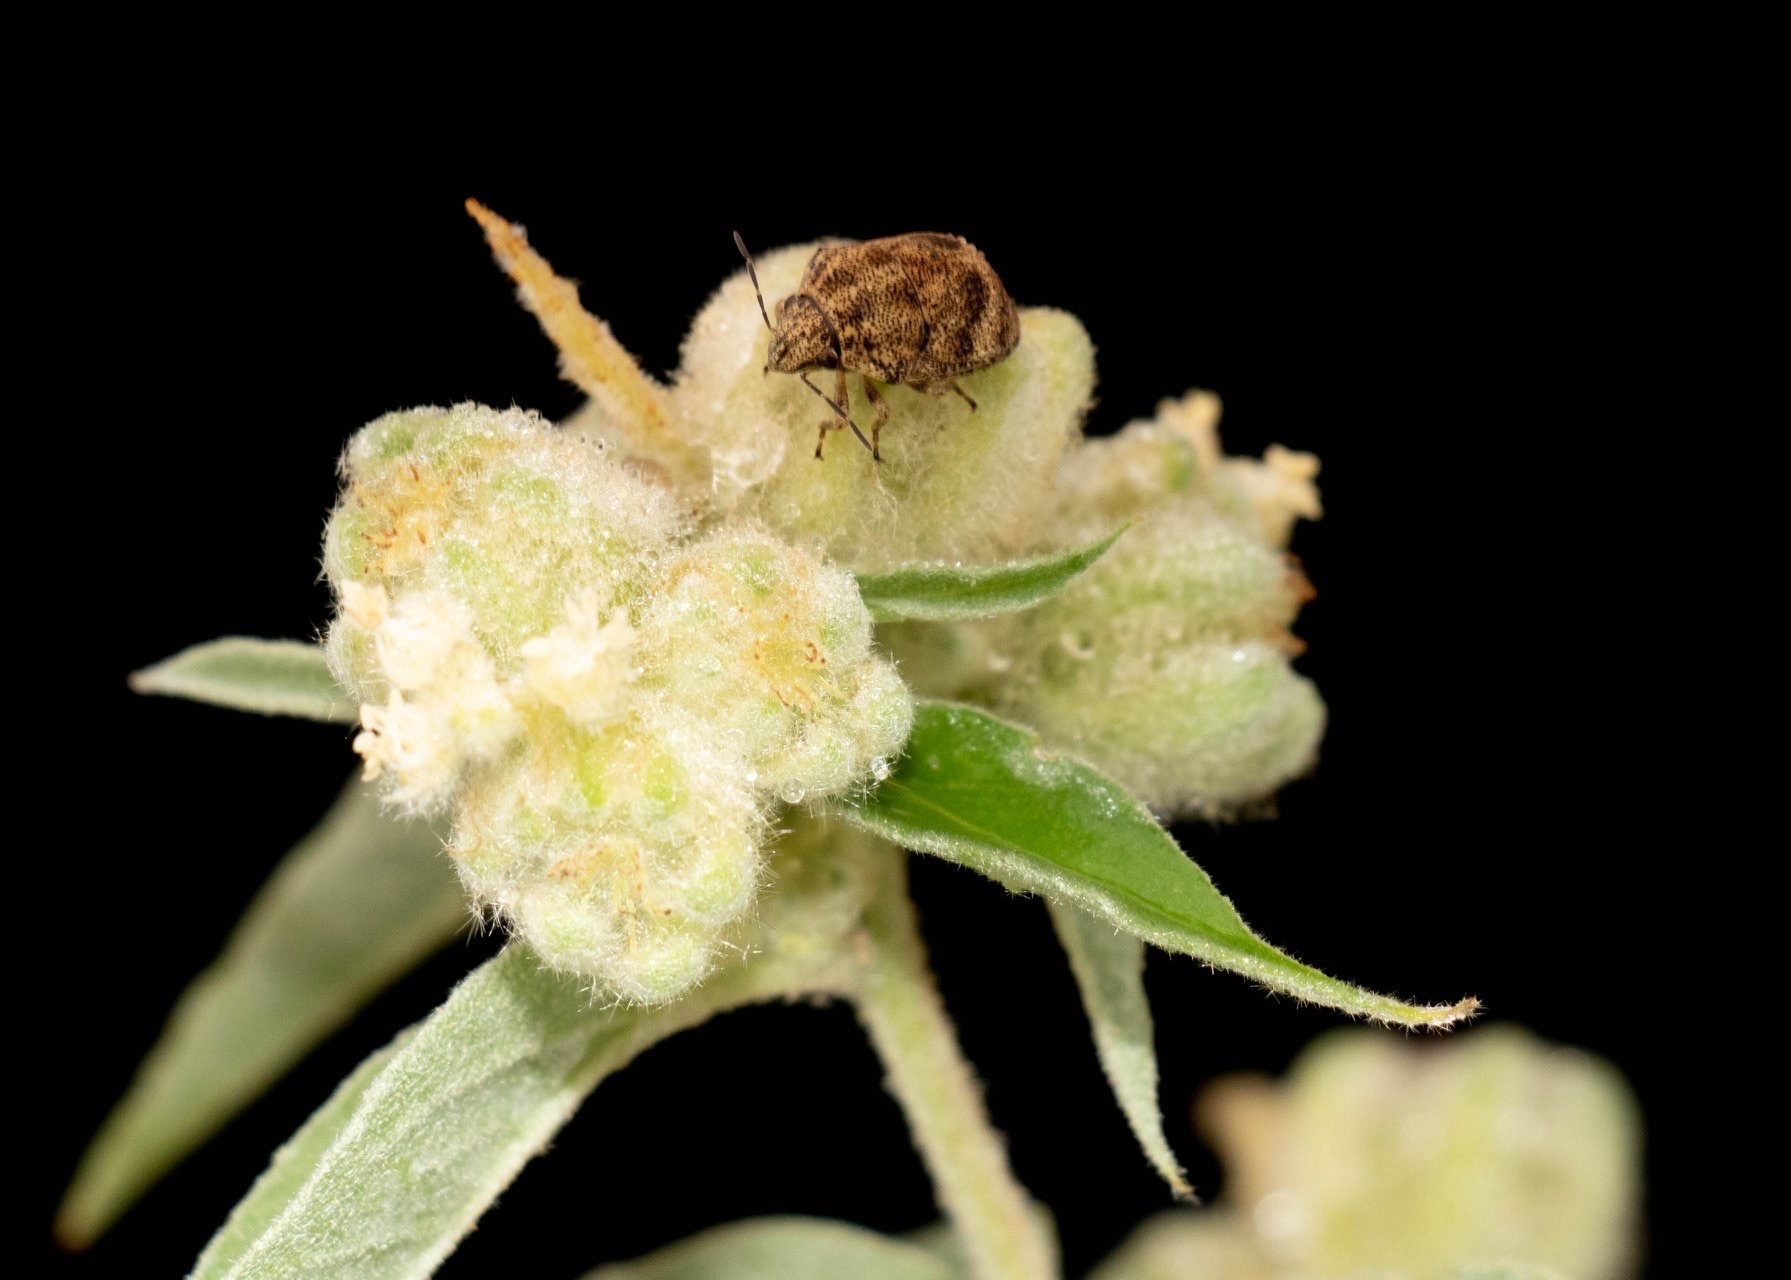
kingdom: Animalia
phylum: Arthropoda
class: Insecta
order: Hemiptera
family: Scutelleridae
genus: Orsilochides
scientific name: Orsilochides
